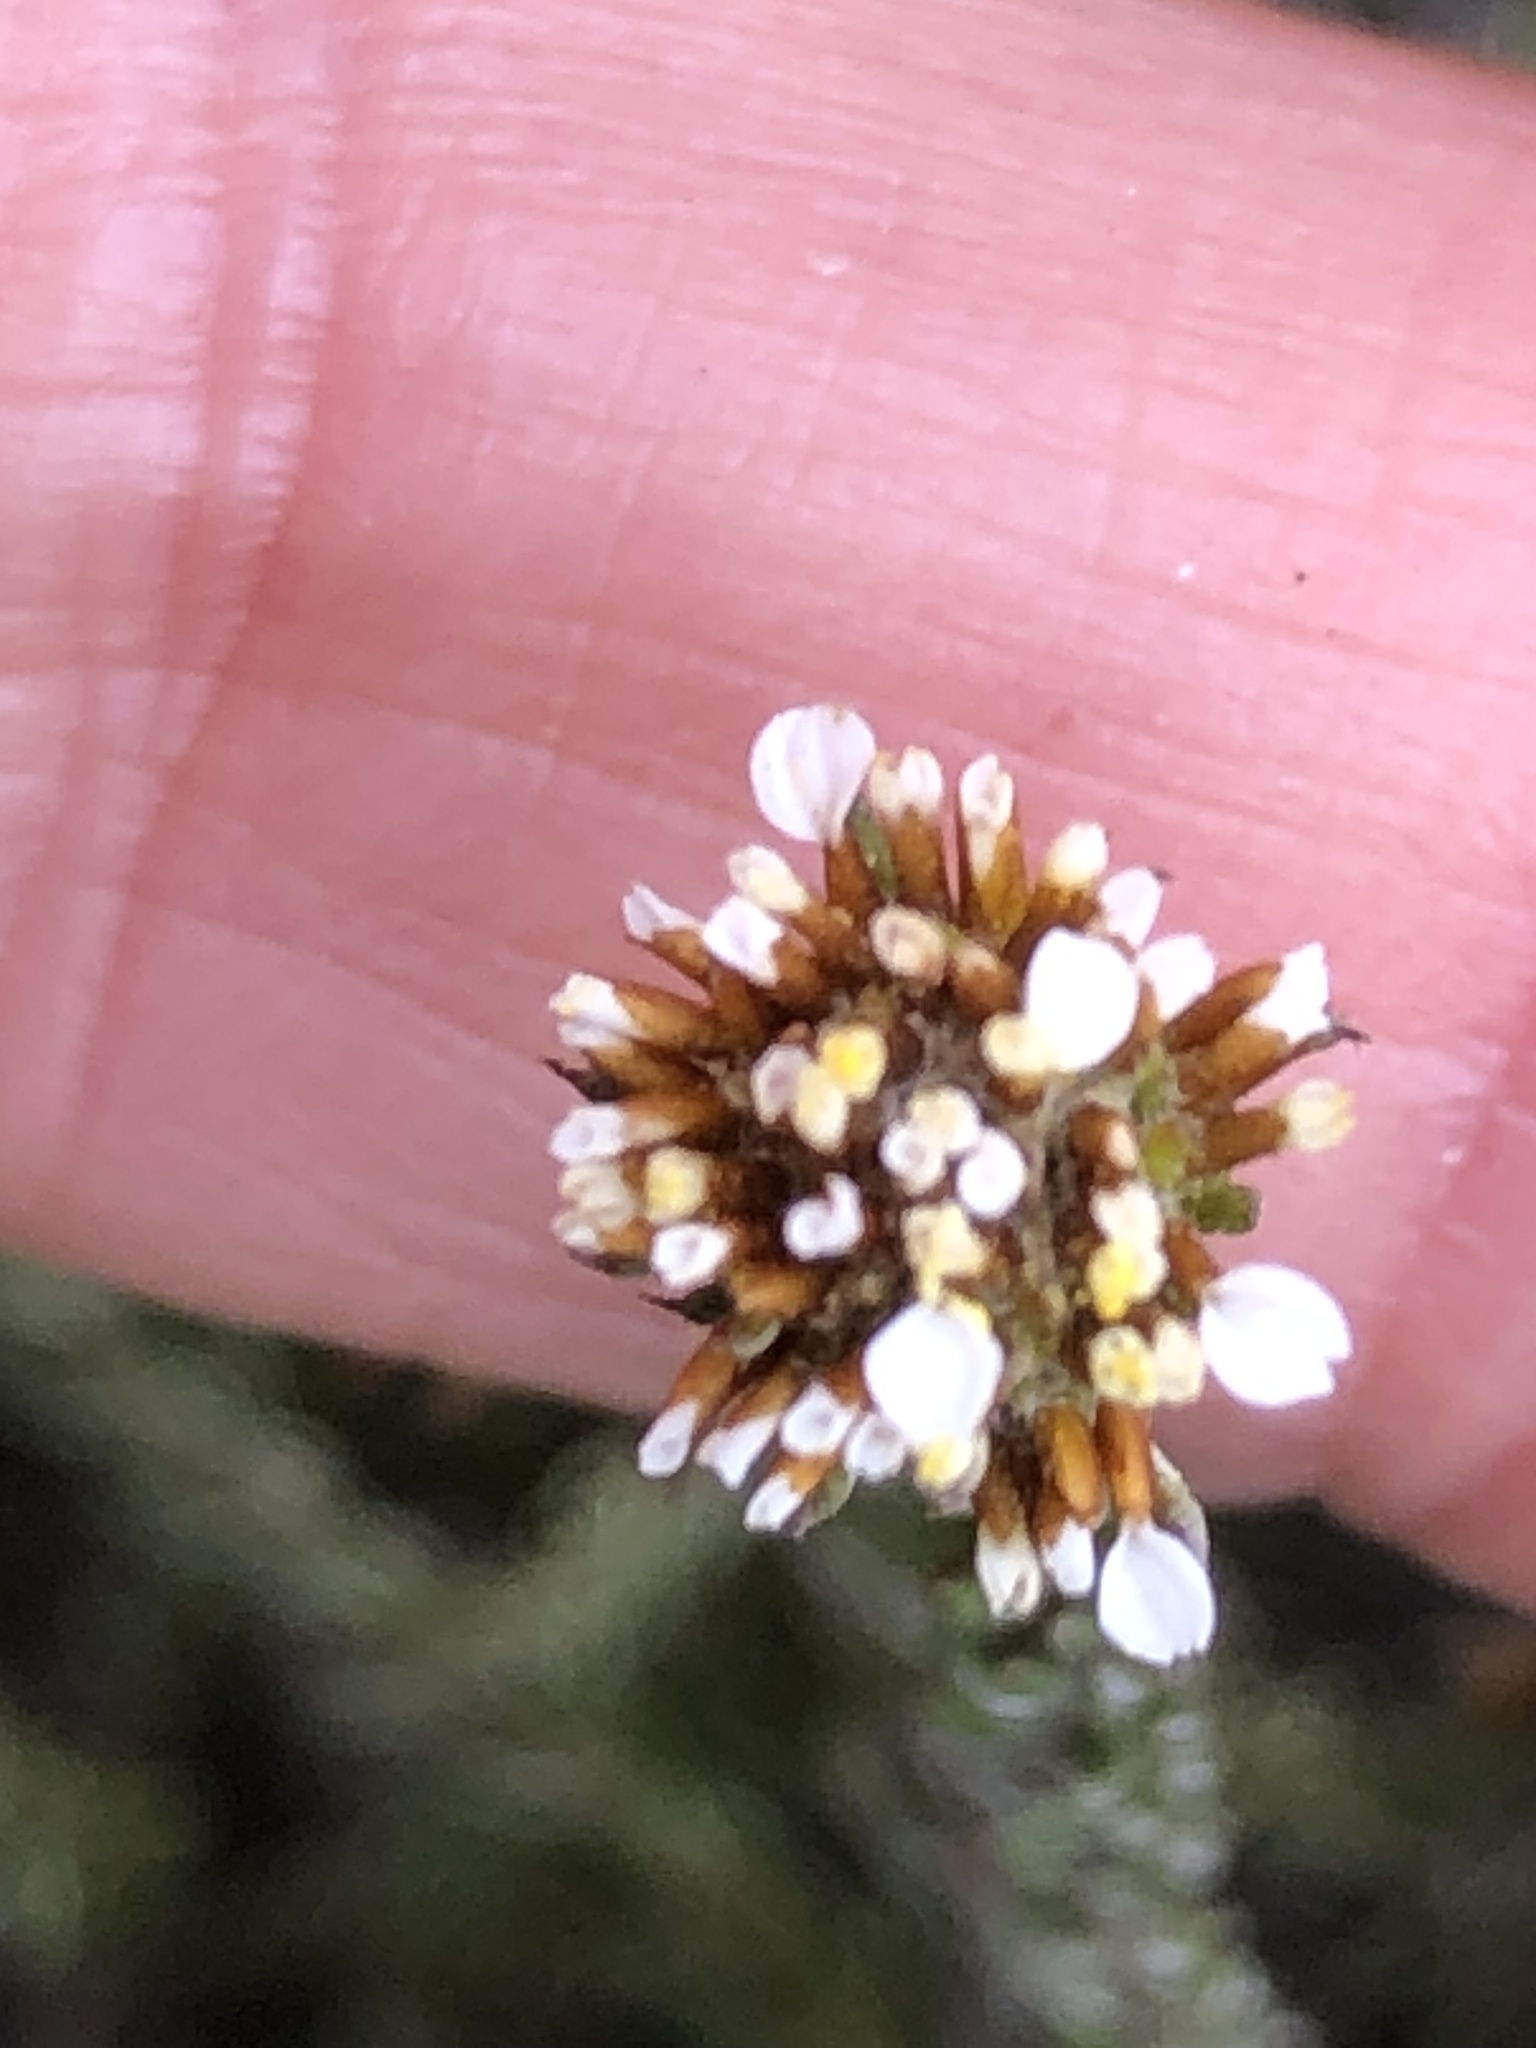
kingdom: Plantae
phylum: Tracheophyta
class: Magnoliopsida
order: Asterales
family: Asteraceae
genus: Disparago
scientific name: Disparago anomala
